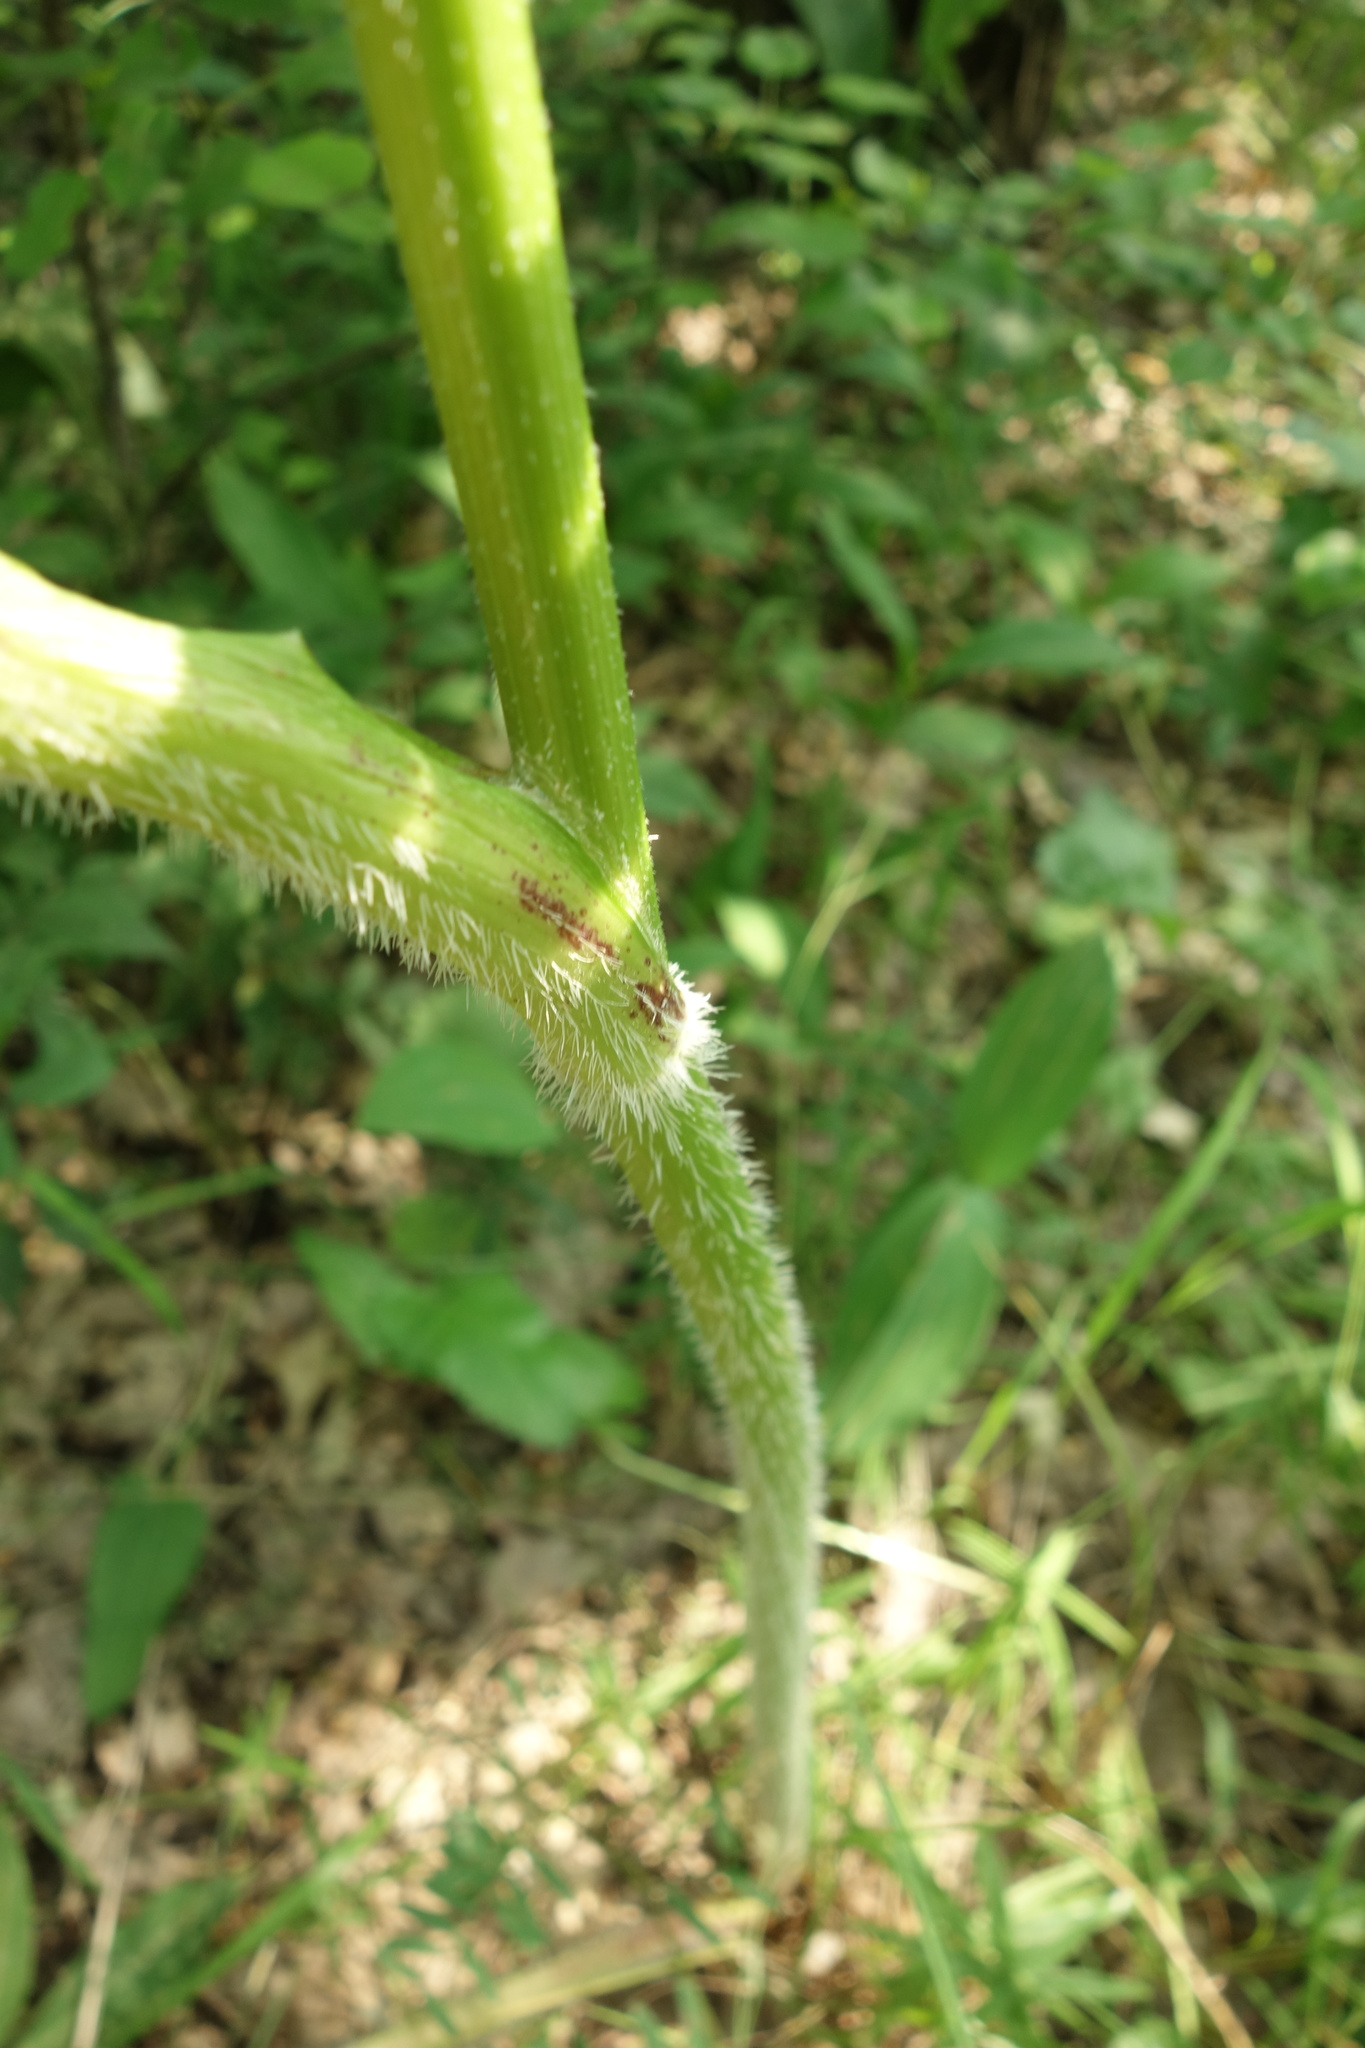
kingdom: Plantae
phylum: Tracheophyta
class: Magnoliopsida
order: Apiales
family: Apiaceae
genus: Heracleum
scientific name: Heracleum sphondylium
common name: Hogweed
